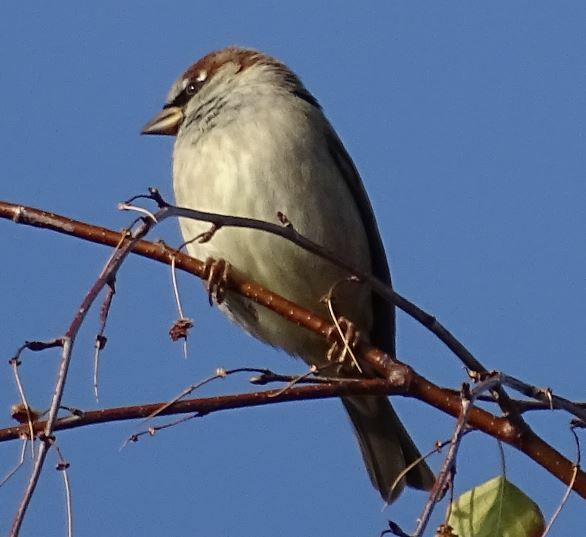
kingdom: Animalia
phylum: Chordata
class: Aves
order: Passeriformes
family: Passeridae
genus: Passer
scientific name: Passer domesticus
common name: House sparrow
